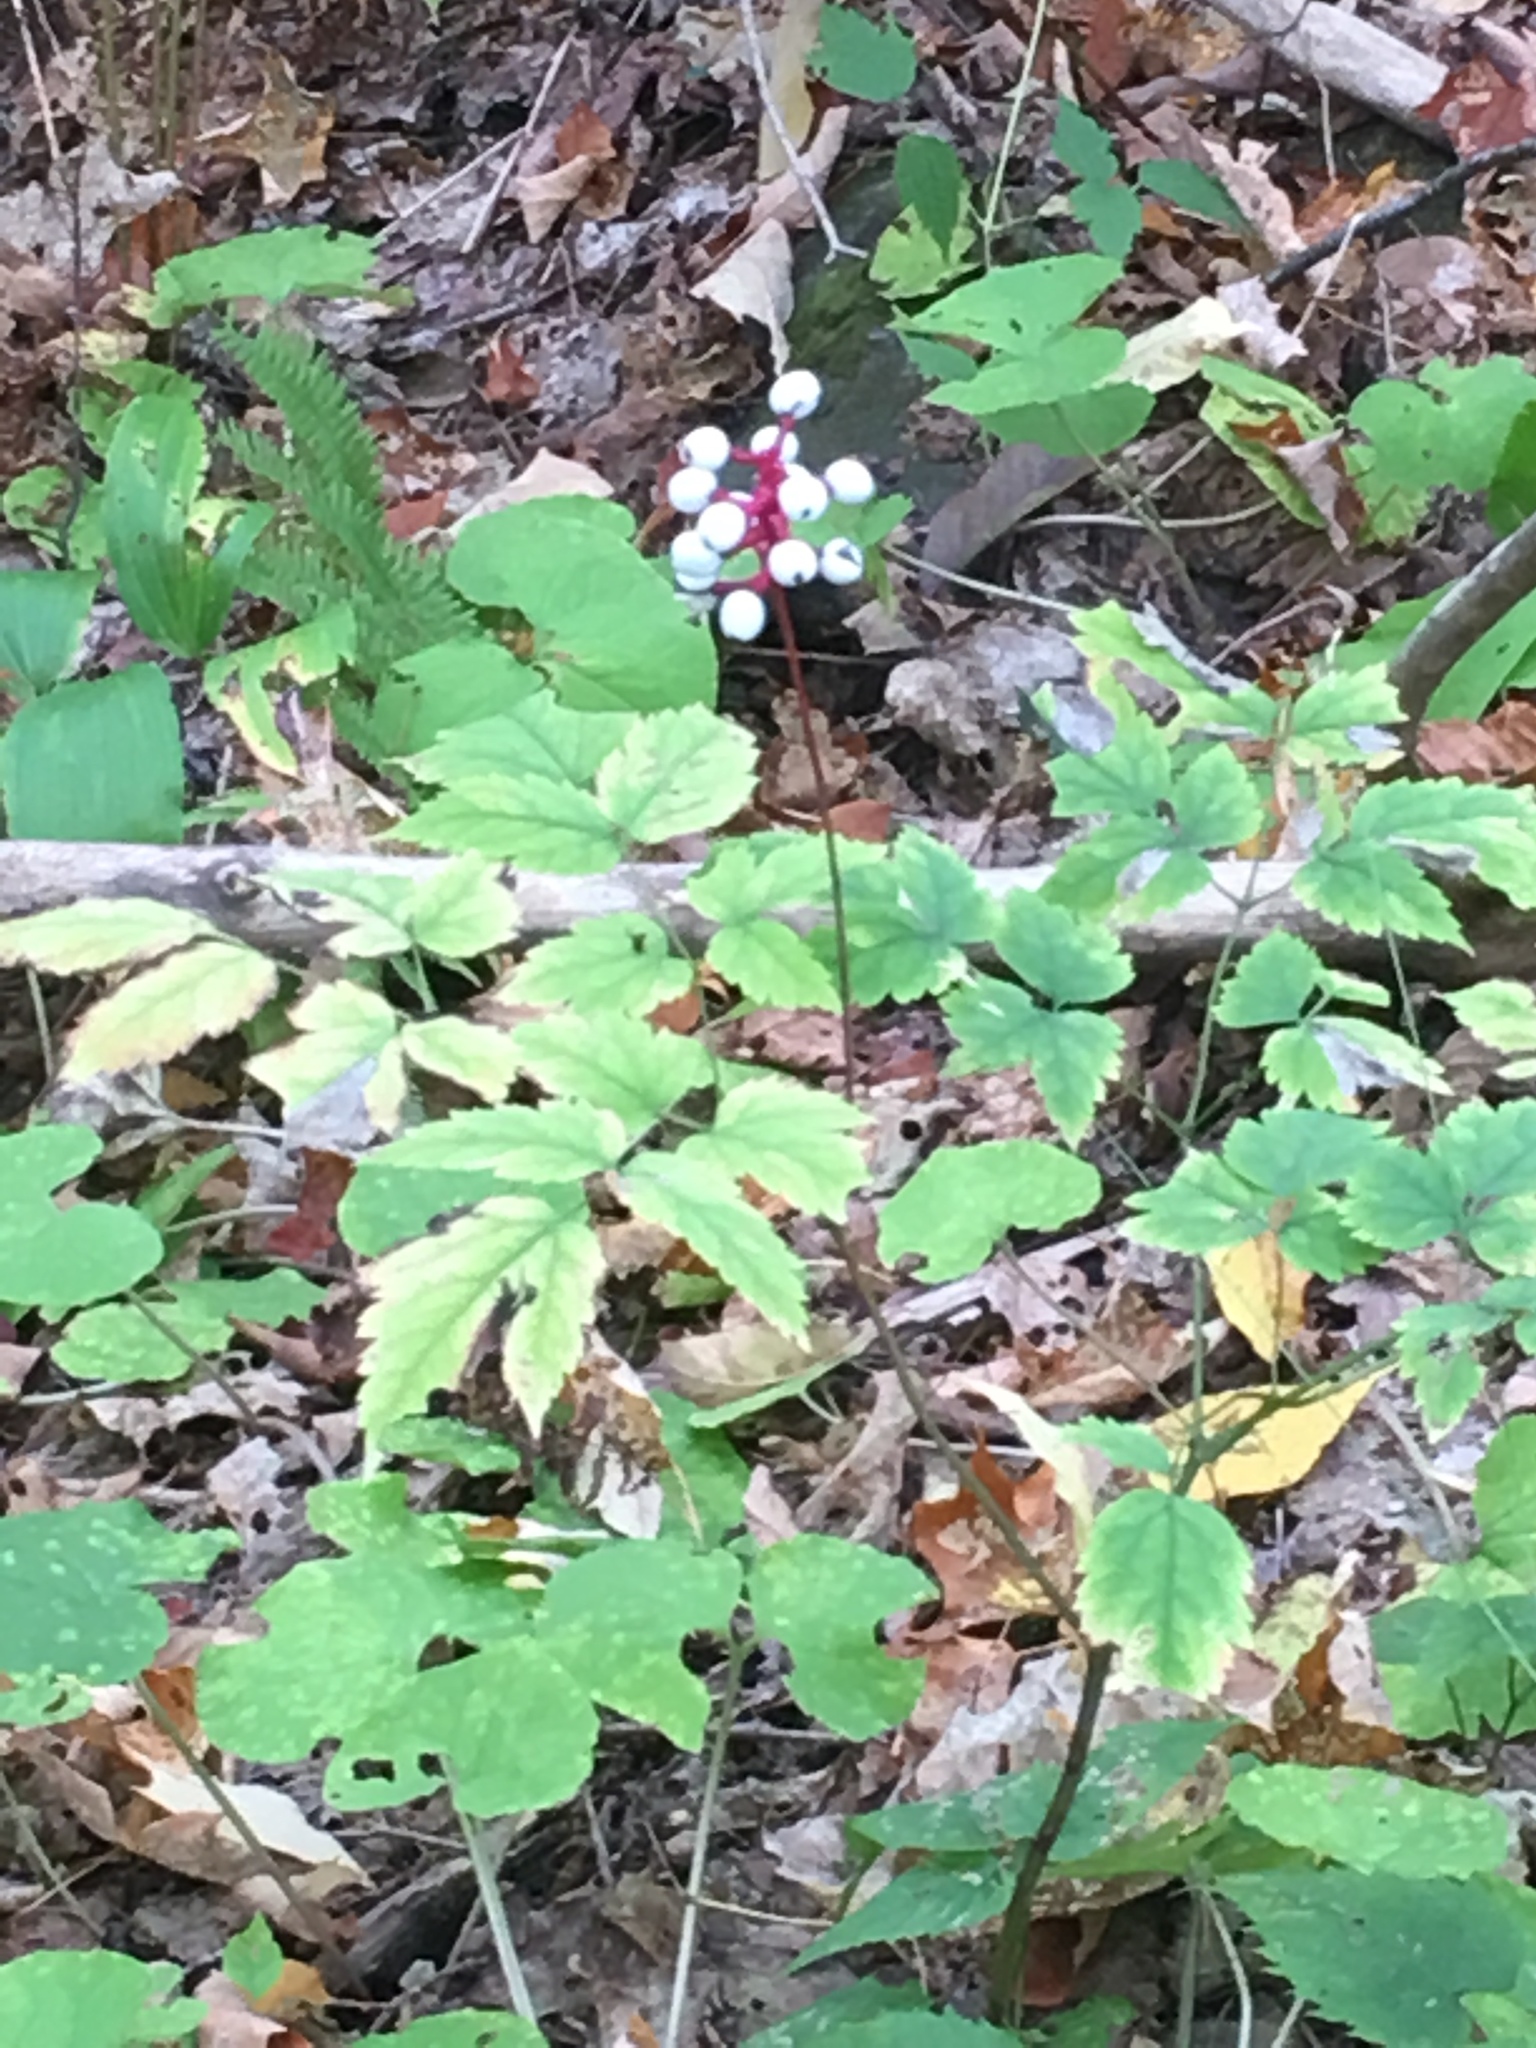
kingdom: Plantae
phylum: Tracheophyta
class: Magnoliopsida
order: Ranunculales
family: Ranunculaceae
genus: Actaea
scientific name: Actaea pachypoda
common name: Doll's-eyes
